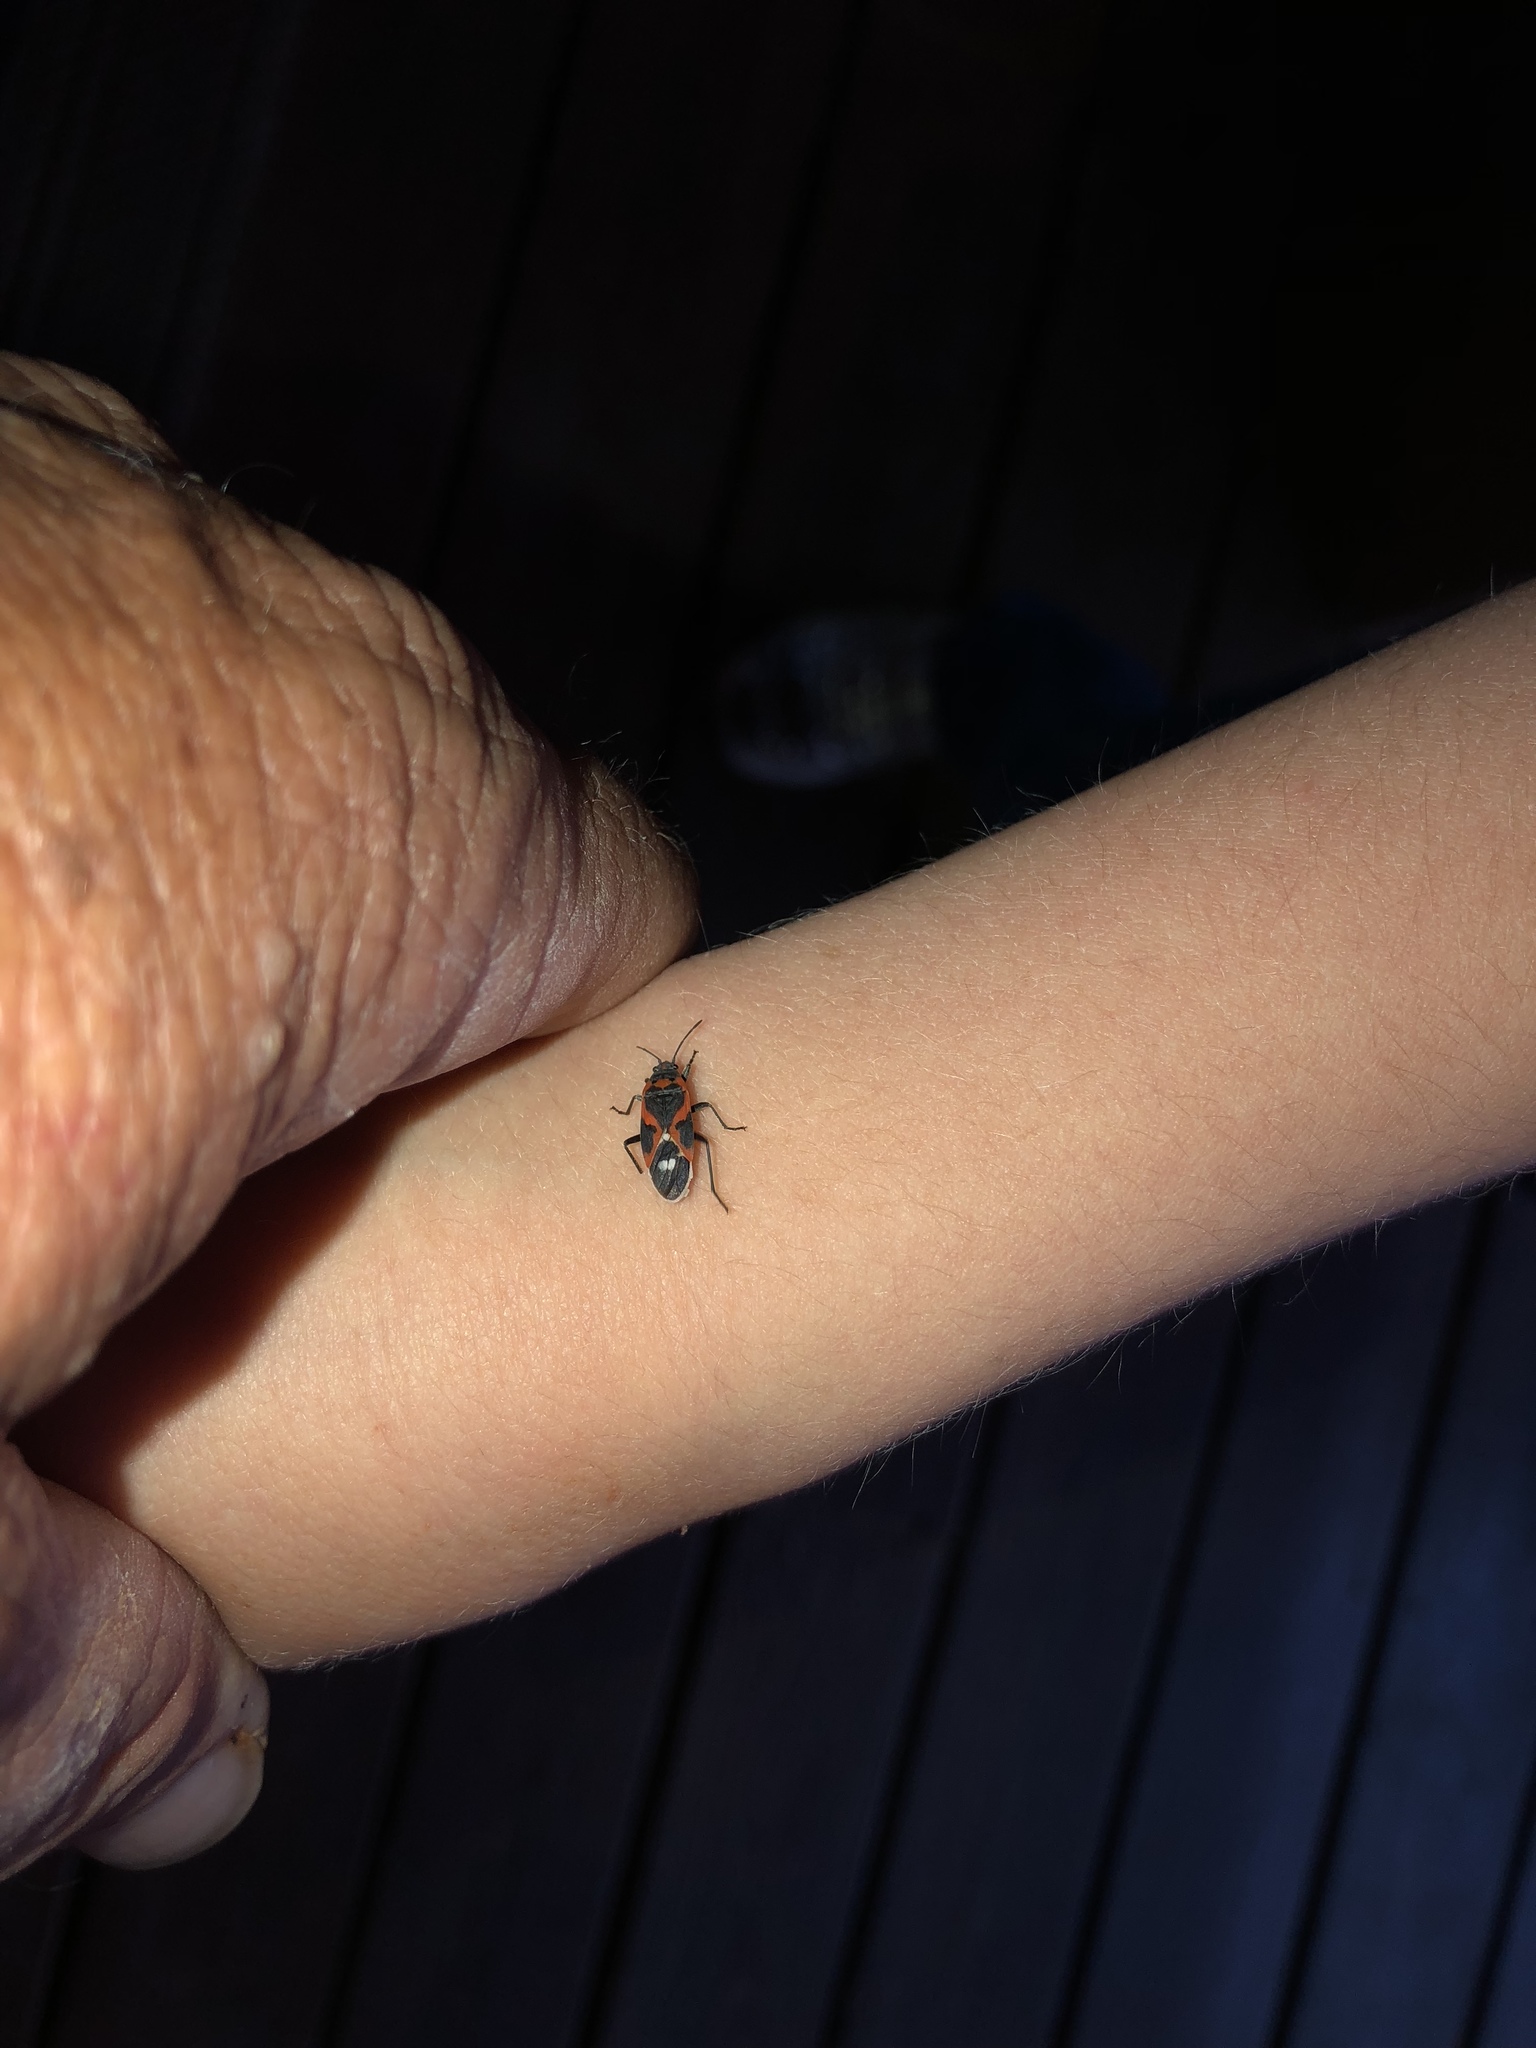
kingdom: Animalia
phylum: Arthropoda
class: Insecta
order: Hemiptera
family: Lygaeidae
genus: Lygaeus
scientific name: Lygaeus kalmii
